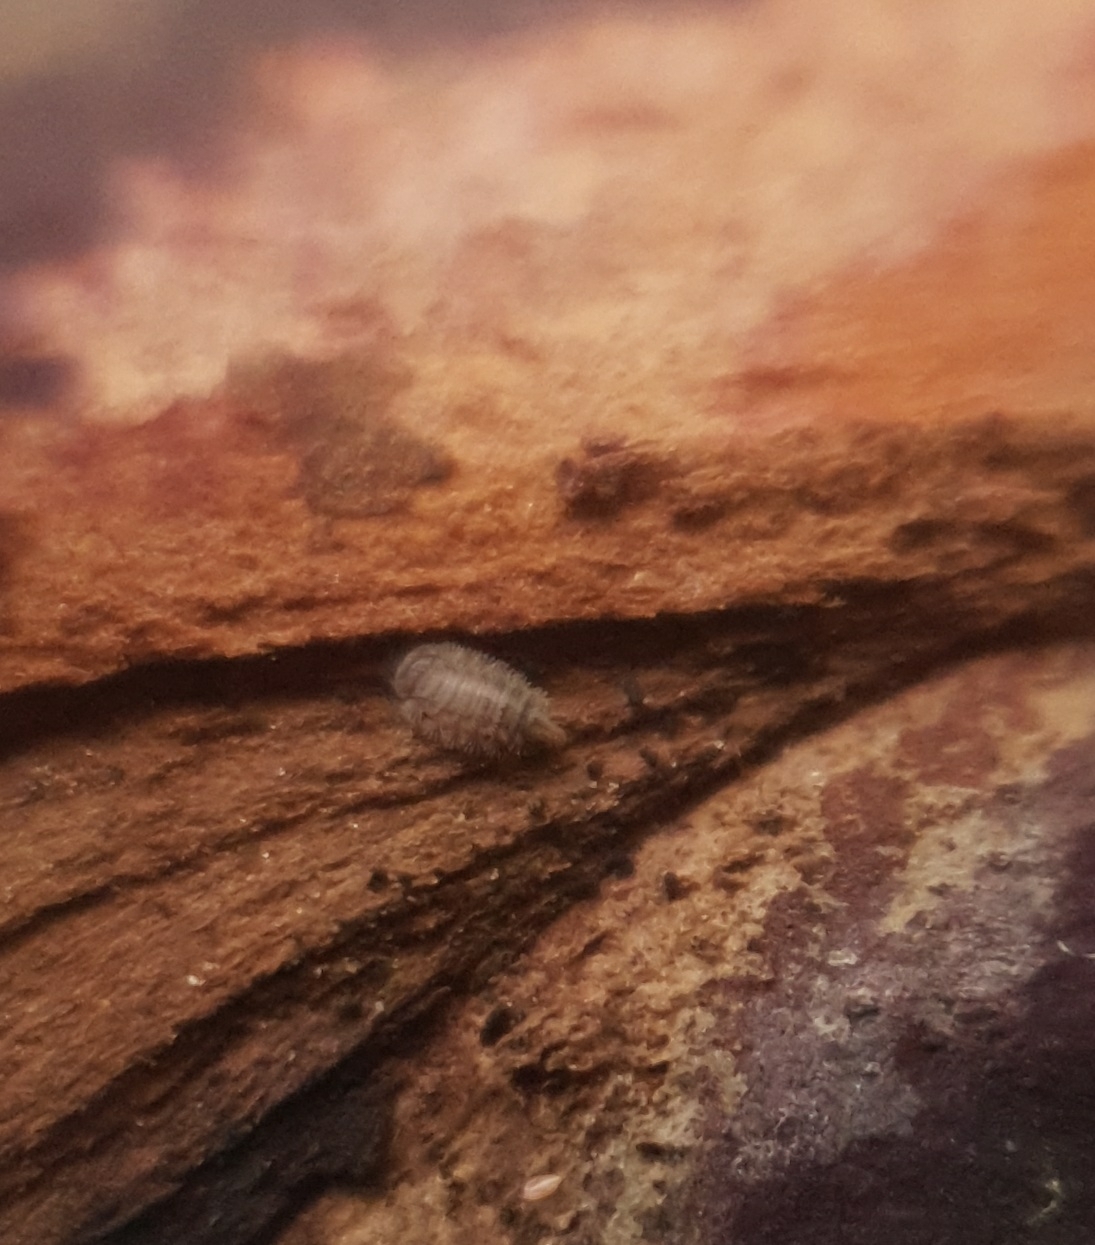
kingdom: Animalia
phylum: Arthropoda
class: Diplopoda
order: Polyxenida
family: Polyxenidae
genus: Polyxenus
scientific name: Polyxenus lagurus
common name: Bristly millipede
